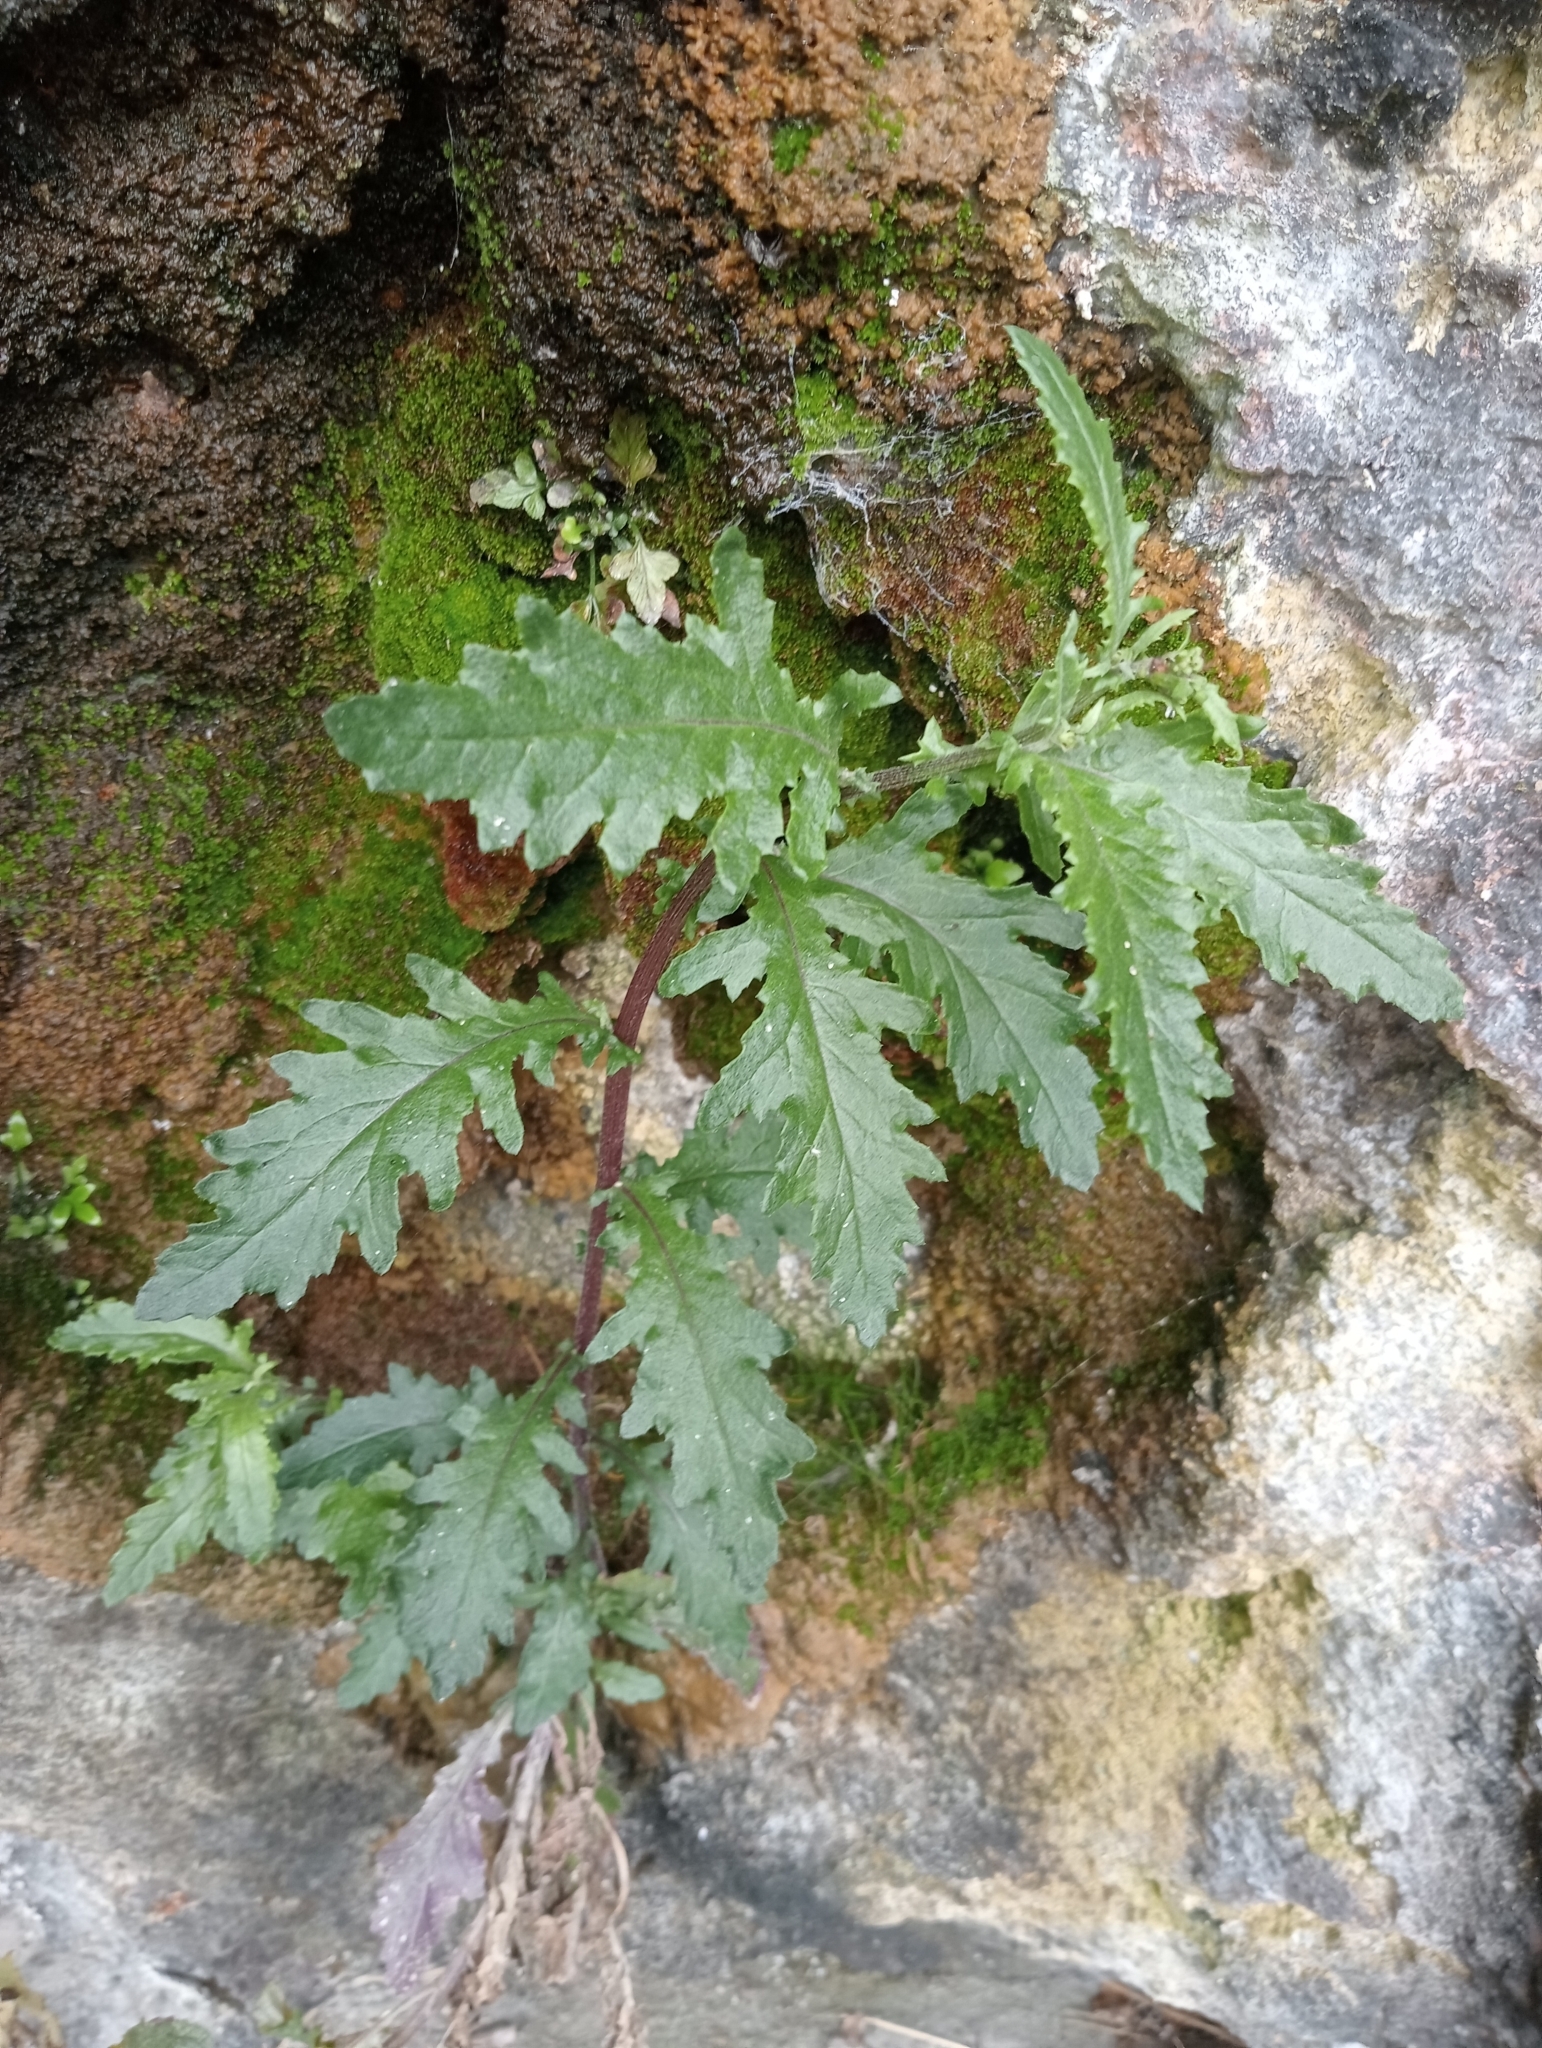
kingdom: Plantae
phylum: Tracheophyta
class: Magnoliopsida
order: Asterales
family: Asteraceae
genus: Senecio
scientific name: Senecio biserratus
